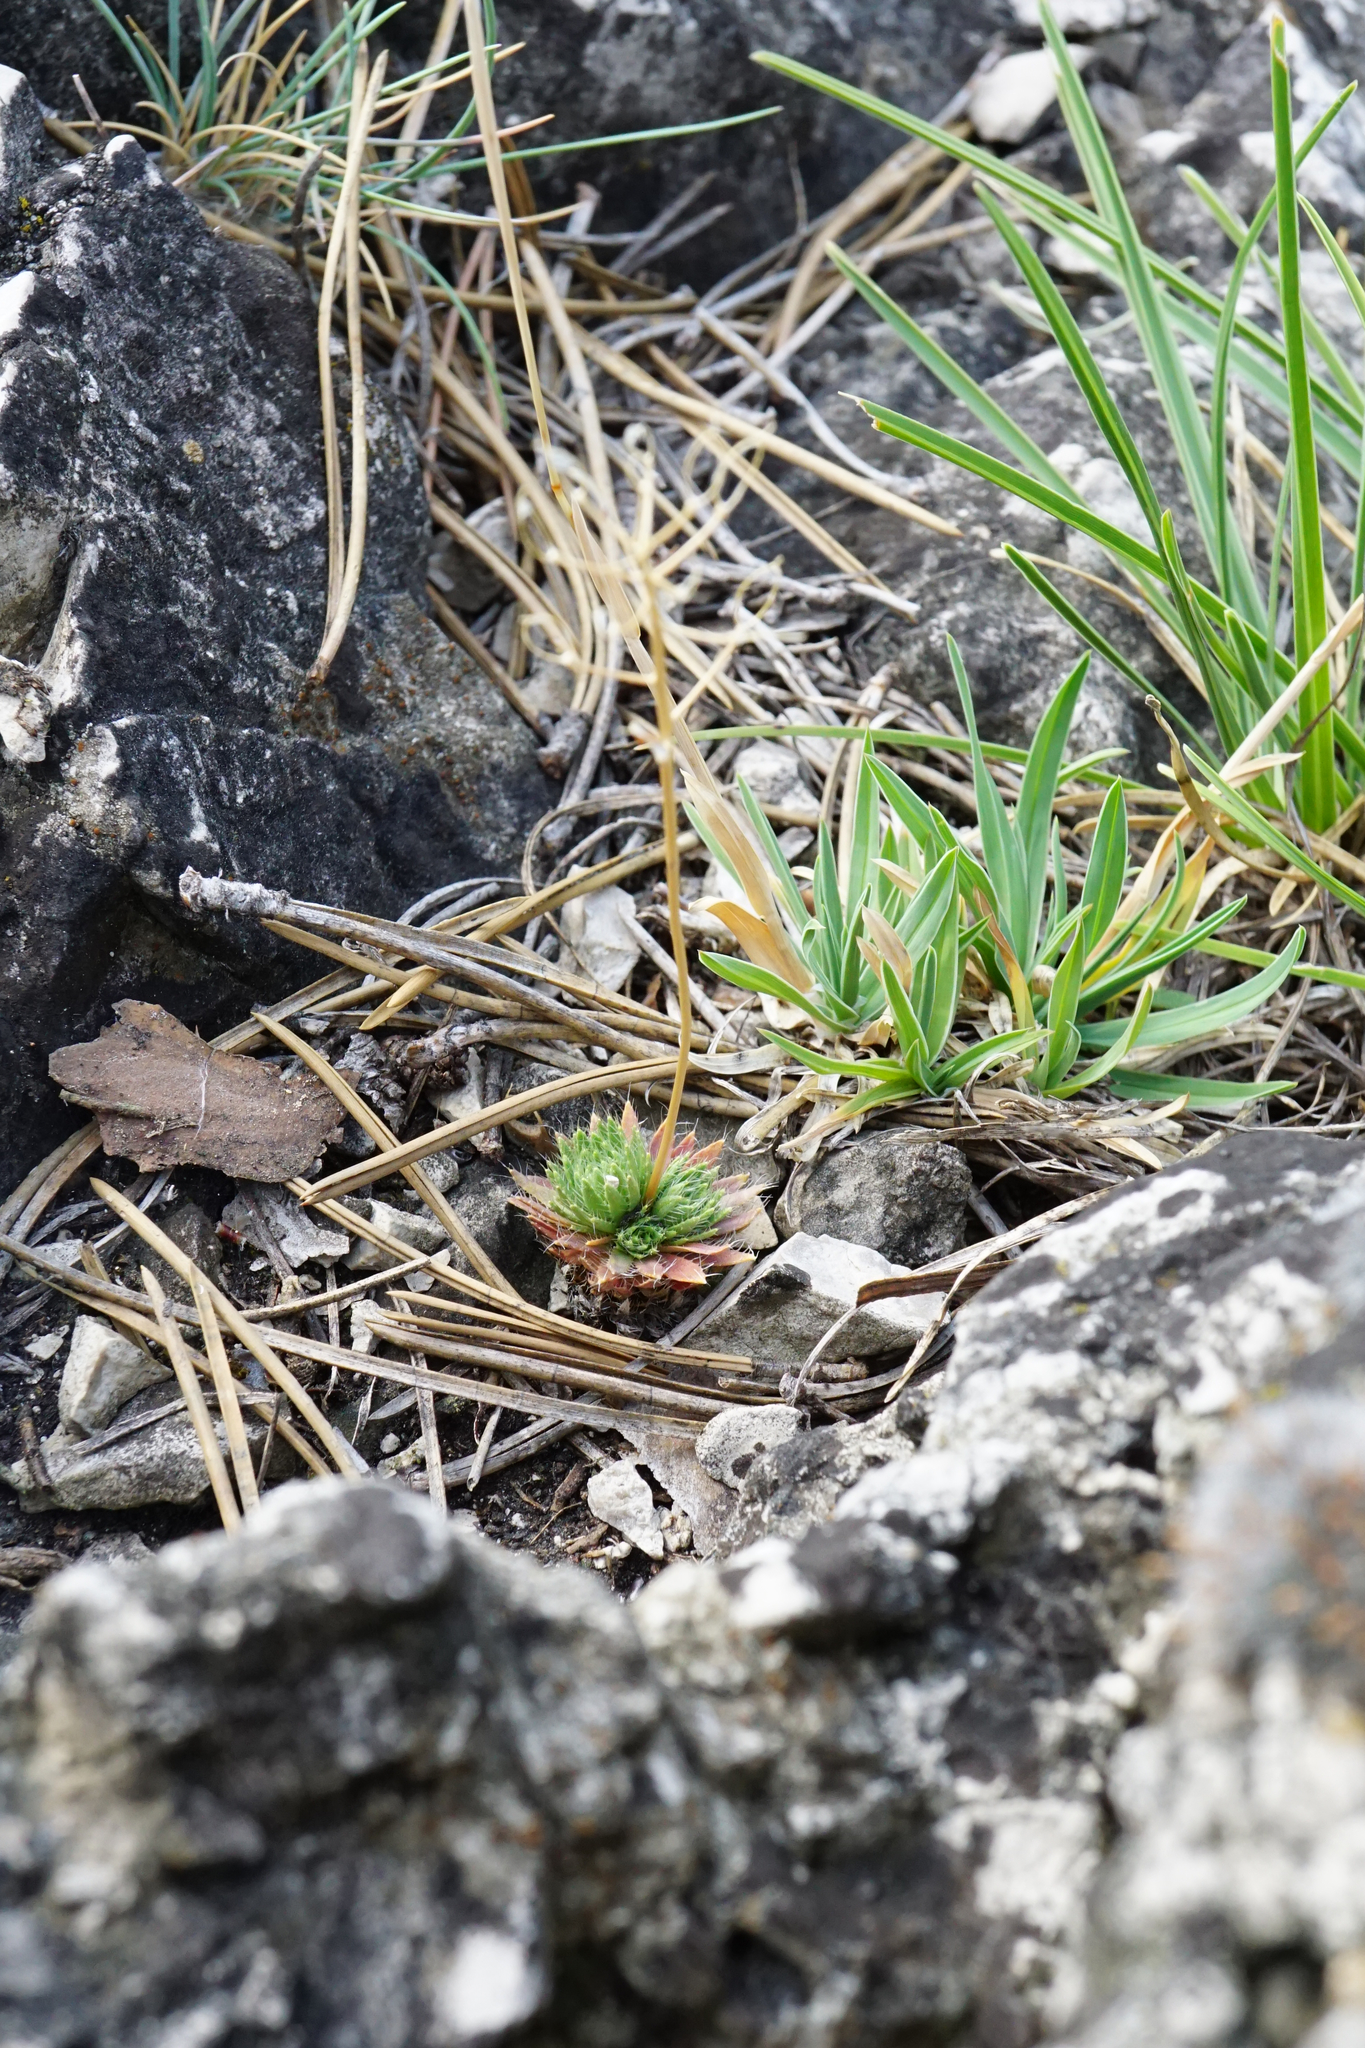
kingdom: Plantae
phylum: Tracheophyta
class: Magnoliopsida
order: Brassicales
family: Brassicaceae
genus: Draba
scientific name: Draba lasiocarpa
